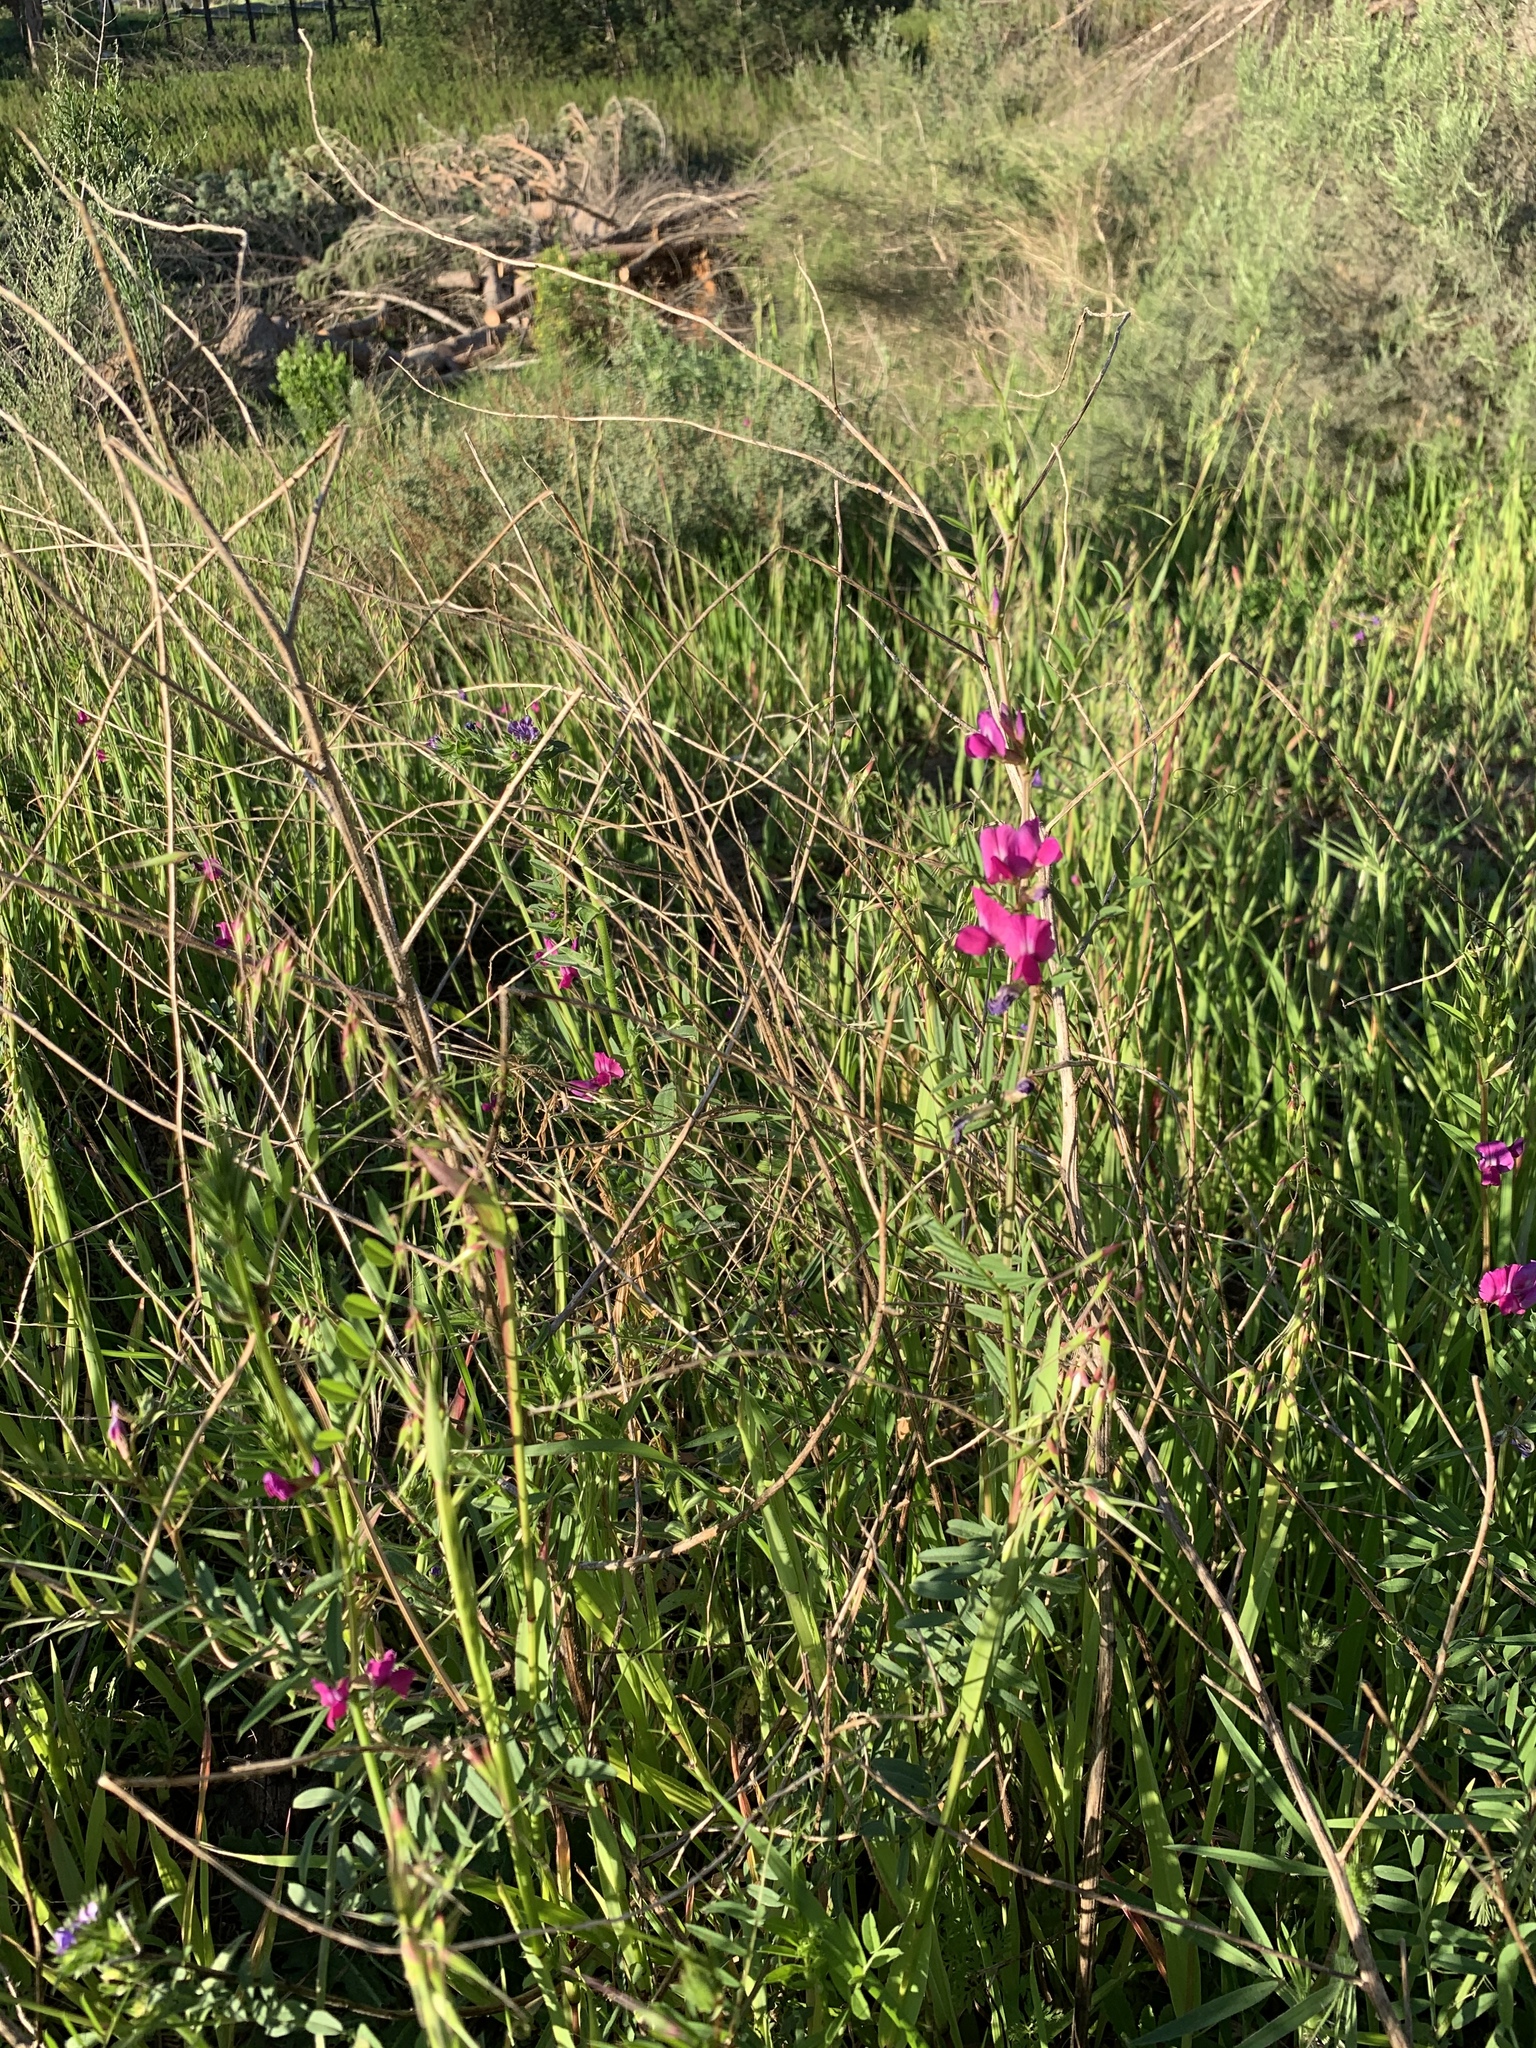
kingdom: Plantae
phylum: Tracheophyta
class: Magnoliopsida
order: Fabales
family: Fabaceae
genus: Vicia
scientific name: Vicia sativa
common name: Garden vetch
